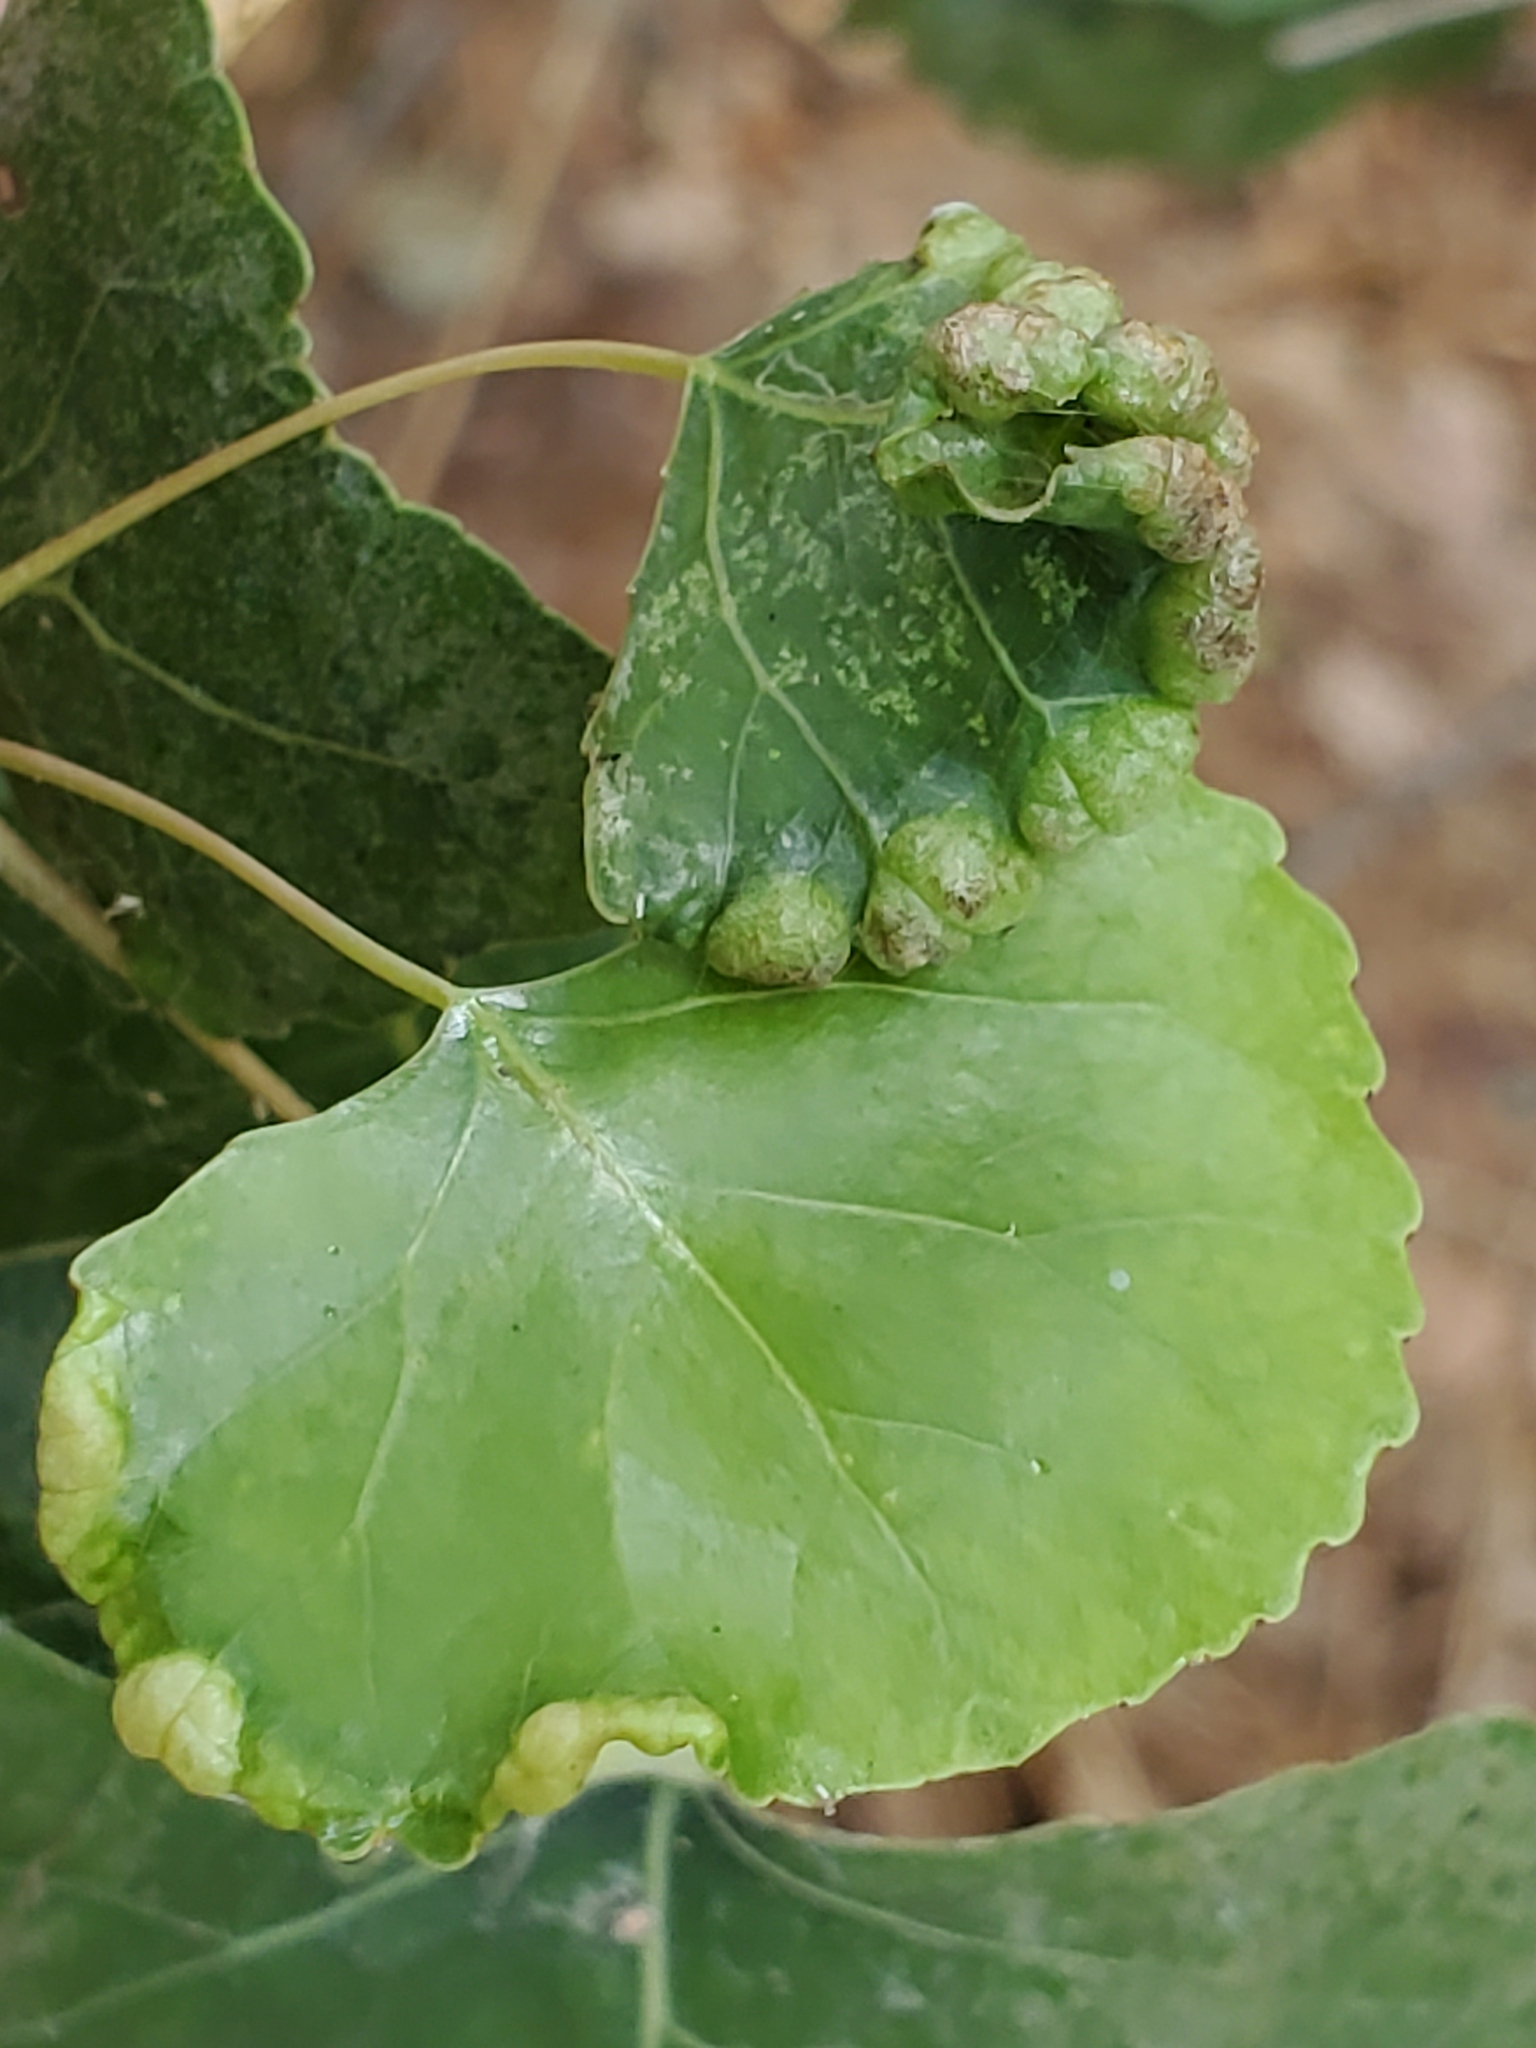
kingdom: Animalia
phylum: Arthropoda
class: Insecta
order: Hemiptera
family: Aphididae
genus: Thecabius
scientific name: Thecabius populimonilis
